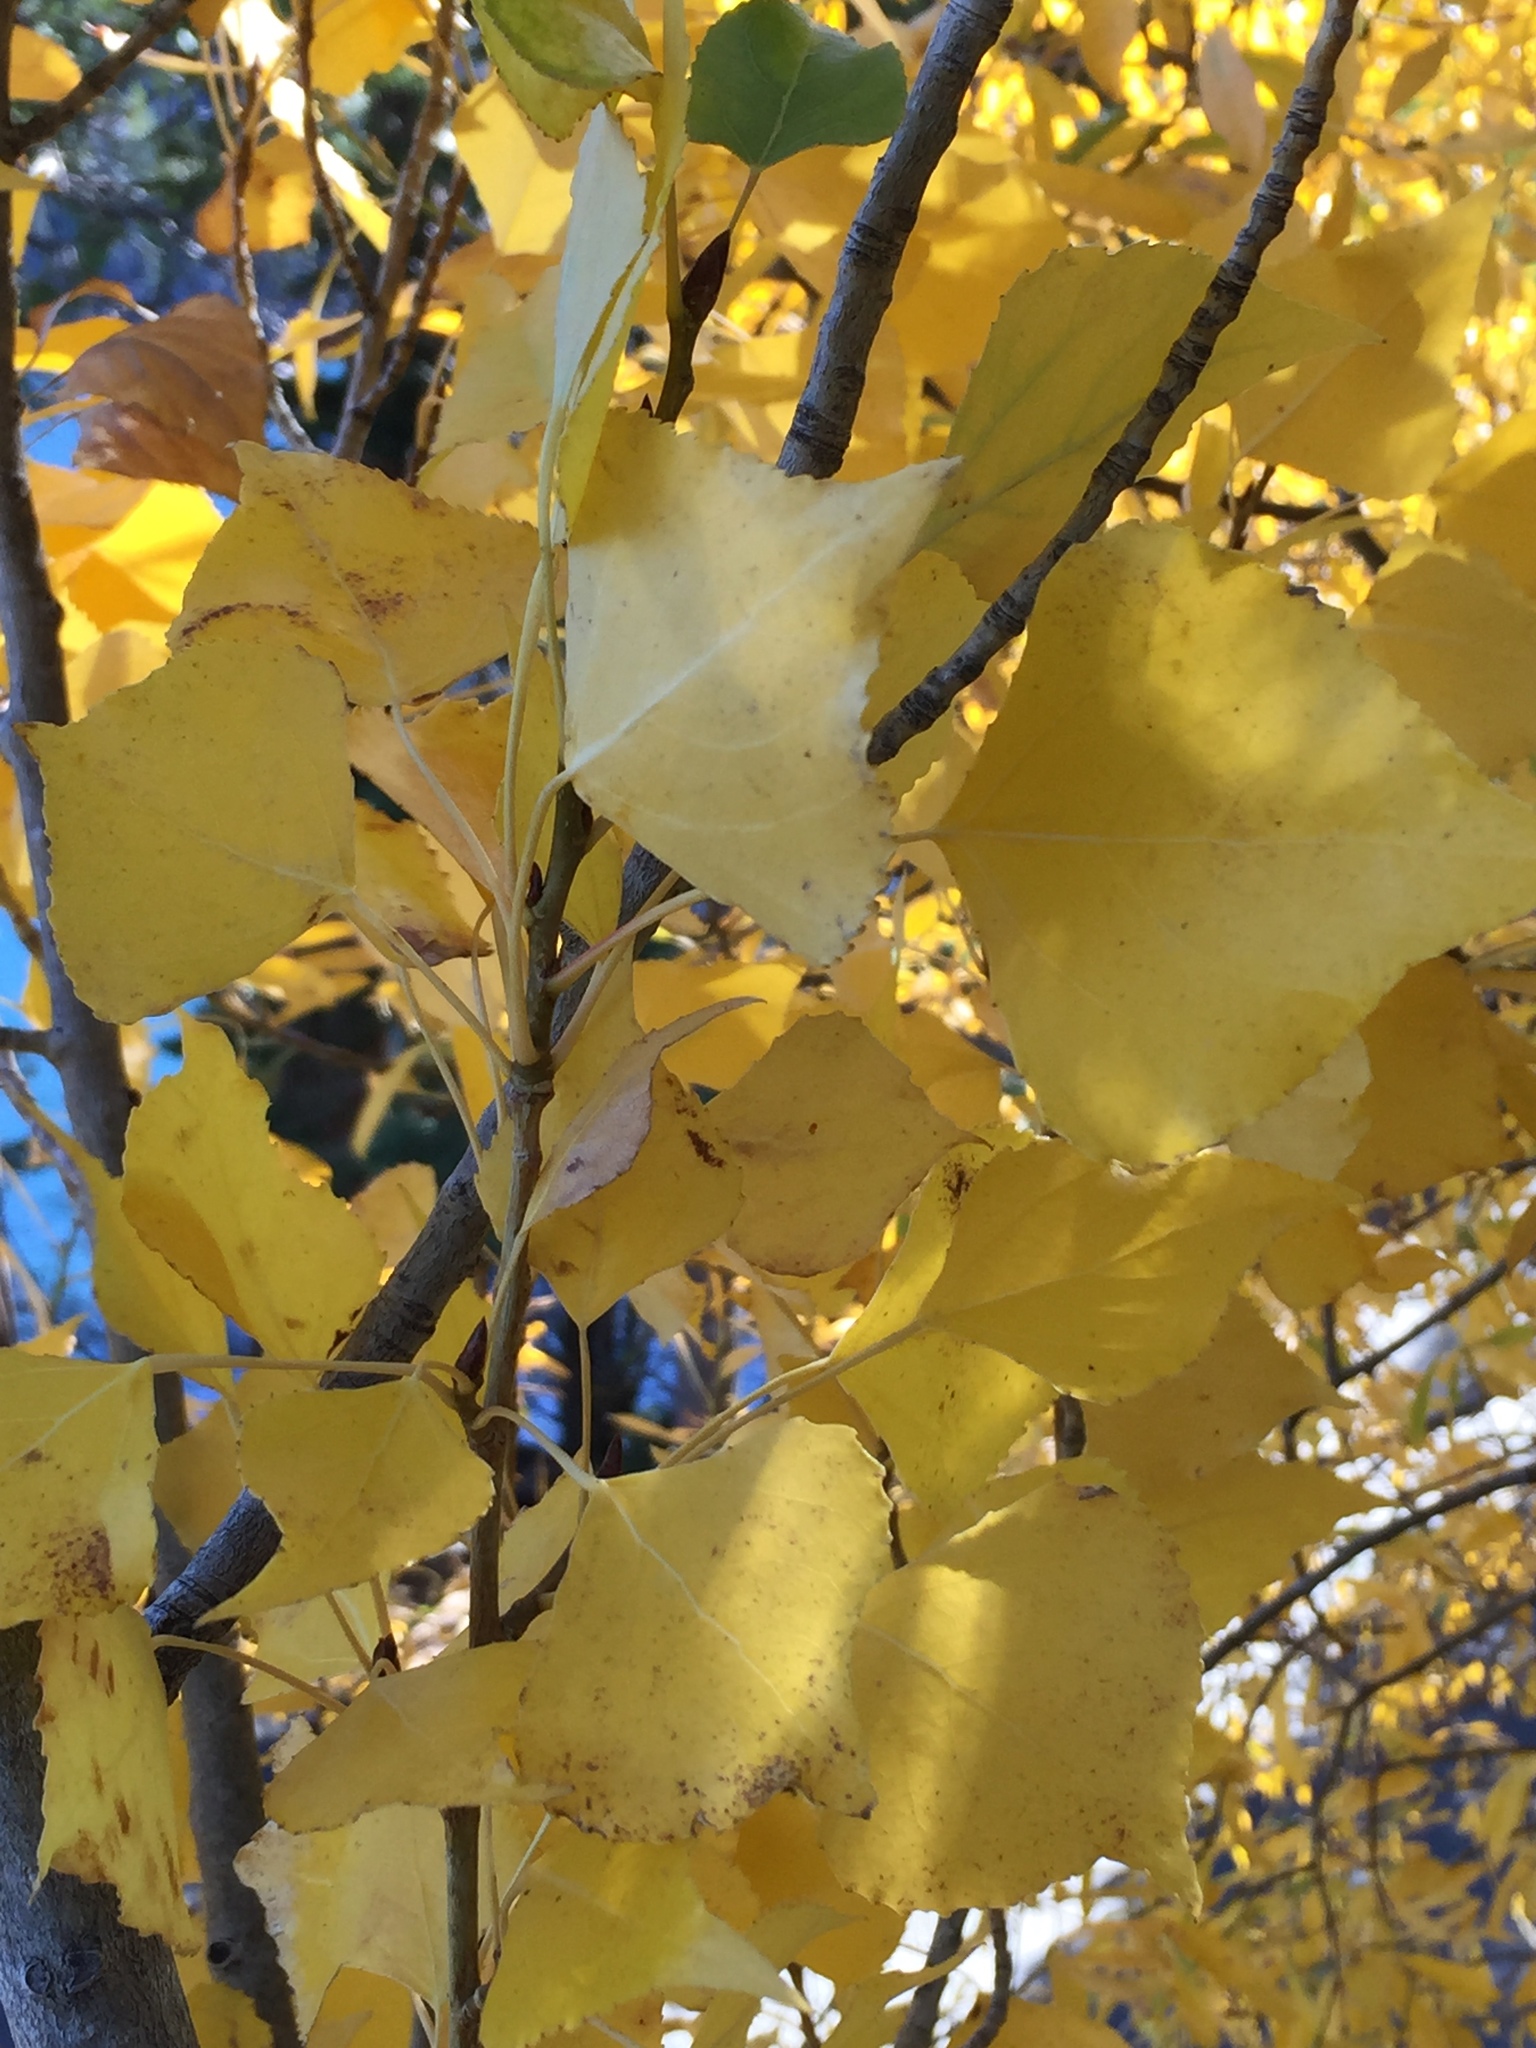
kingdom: Plantae
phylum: Tracheophyta
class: Magnoliopsida
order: Malpighiales
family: Salicaceae
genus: Populus
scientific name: Populus fremontii
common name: Fremont's cottonwood
